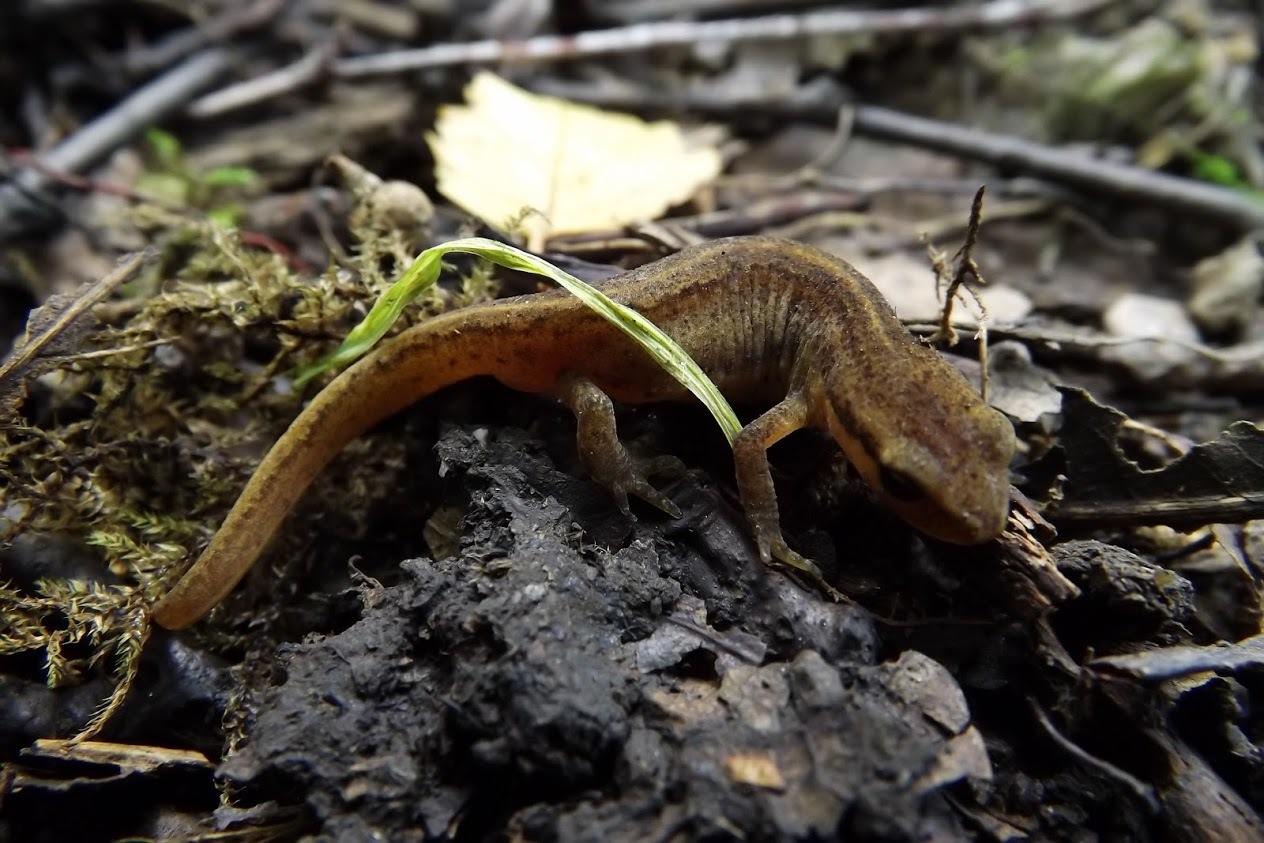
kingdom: Animalia
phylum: Chordata
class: Amphibia
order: Caudata
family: Salamandridae
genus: Lissotriton
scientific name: Lissotriton vulgaris
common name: Smooth newt
